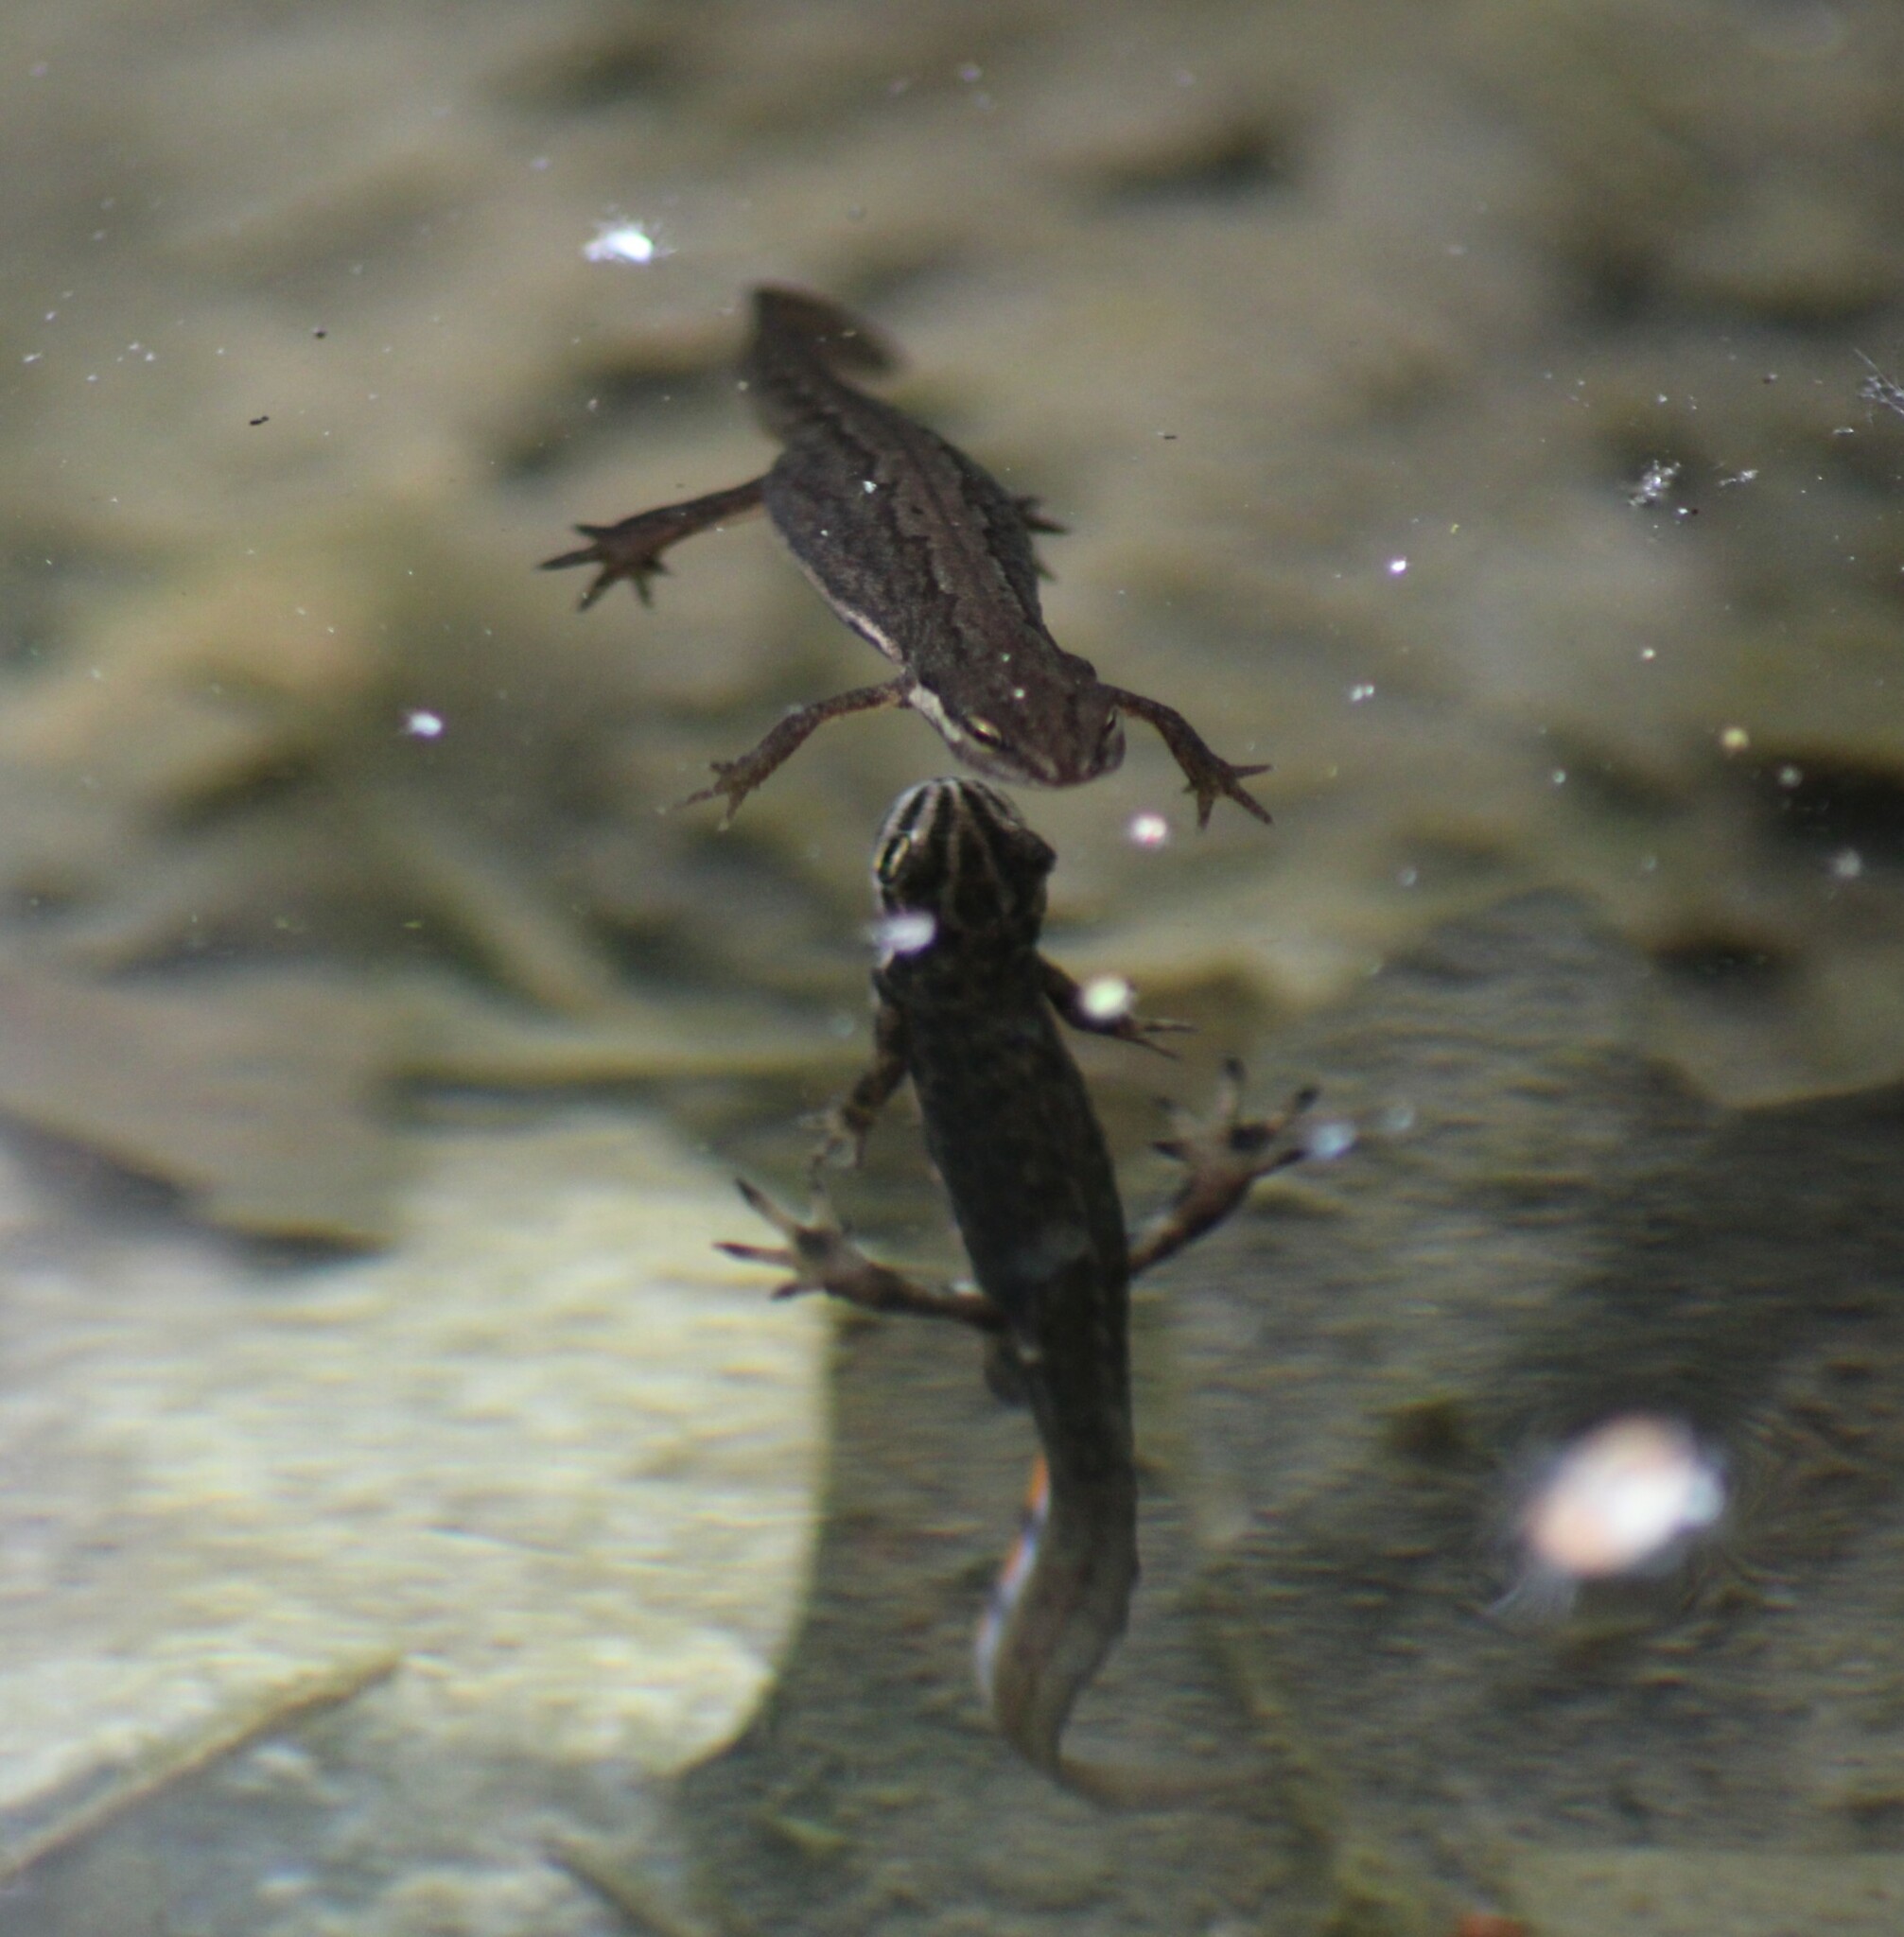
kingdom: Animalia
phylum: Chordata
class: Amphibia
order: Caudata
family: Salamandridae
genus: Lissotriton
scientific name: Lissotriton vulgaris
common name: Smooth newt
